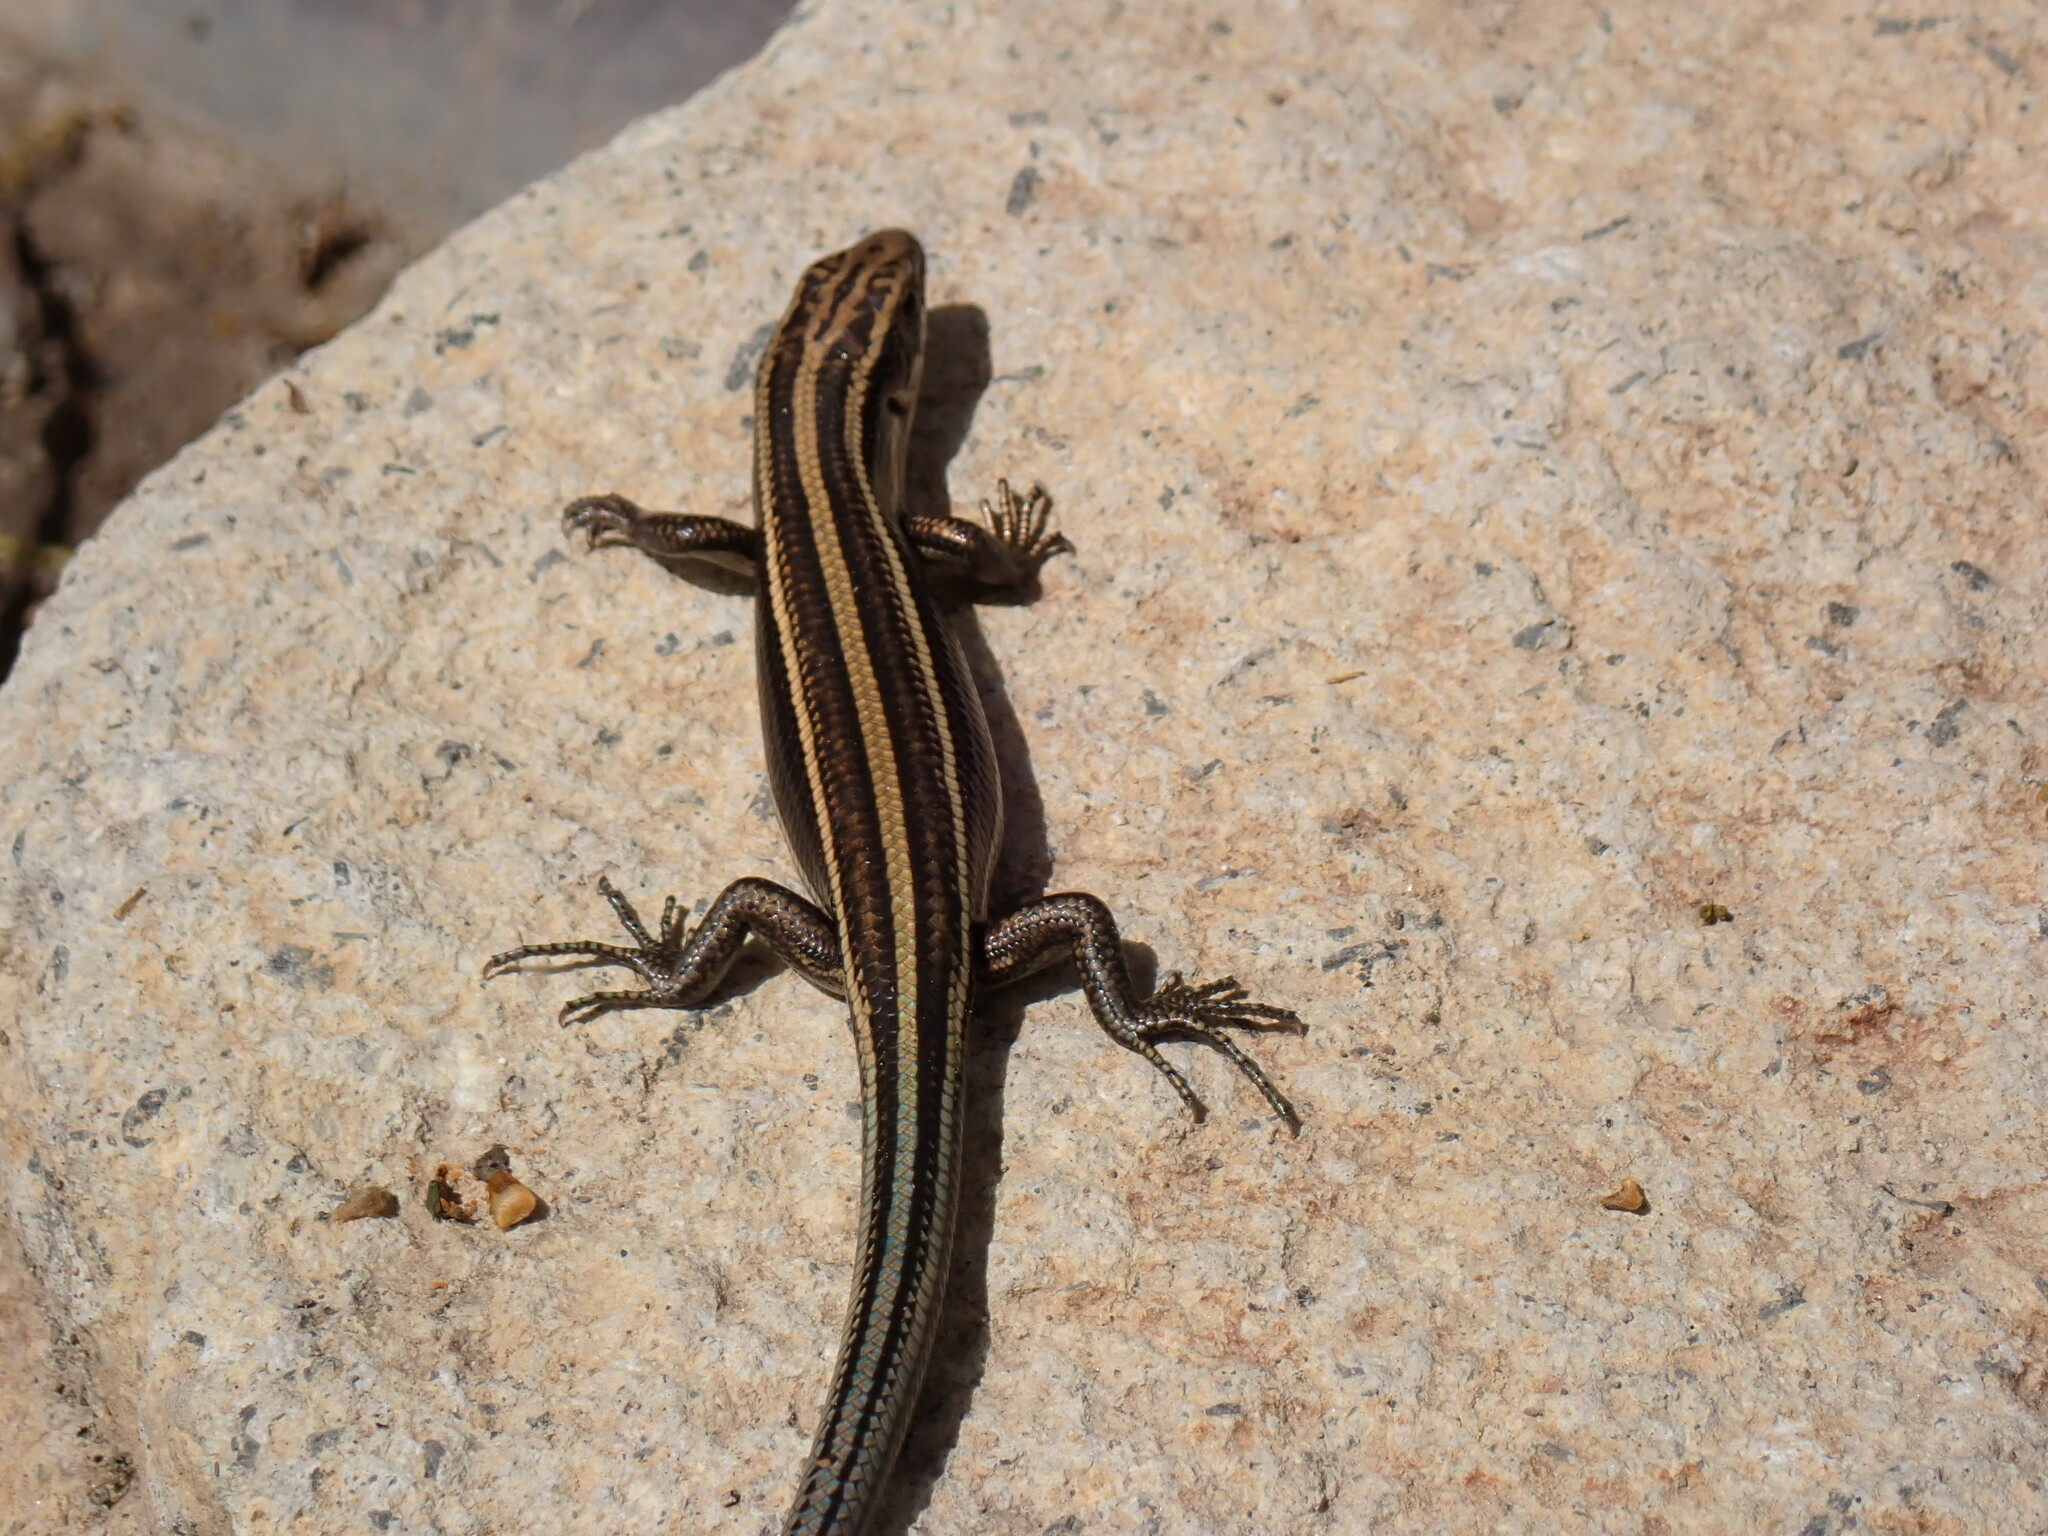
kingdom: Animalia
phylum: Chordata
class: Squamata
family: Scincidae
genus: Plestiodon
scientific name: Plestiodon japonicus
